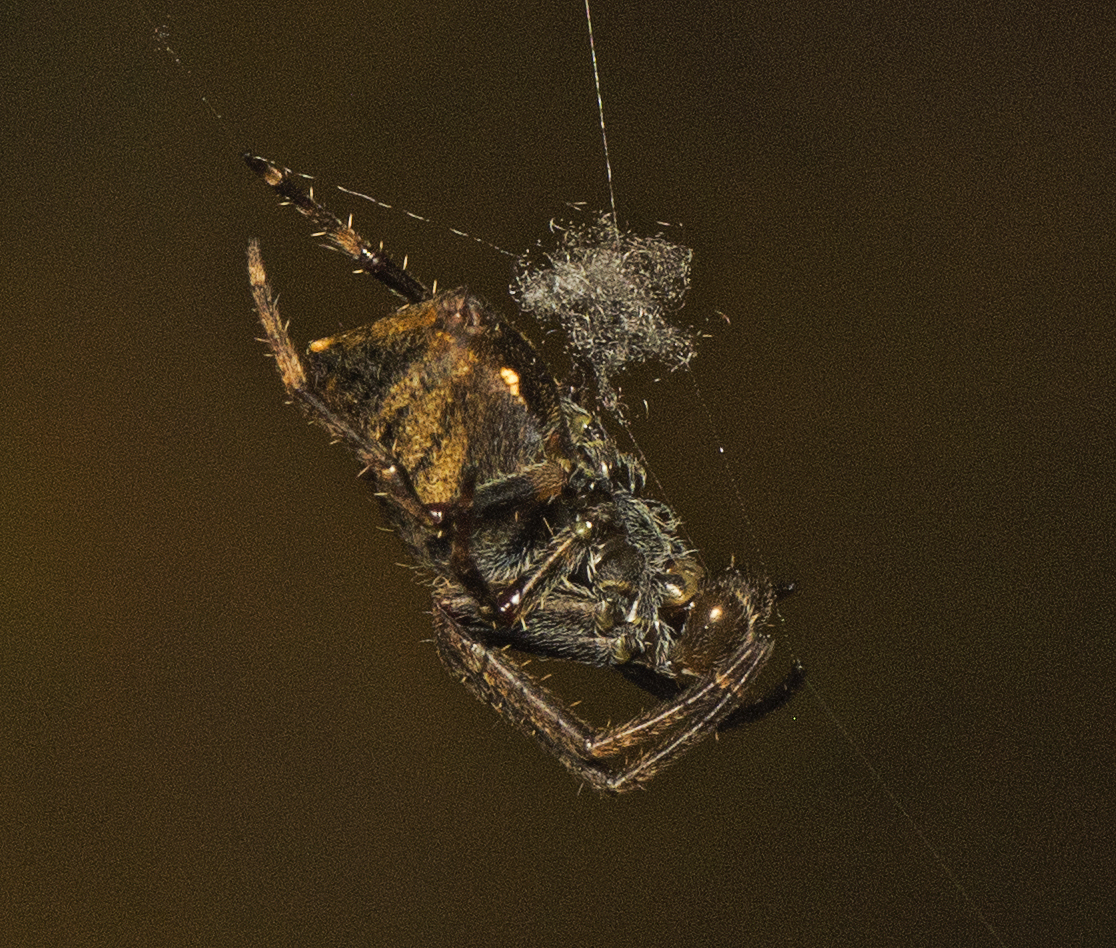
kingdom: Animalia
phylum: Arthropoda
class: Arachnida
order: Araneae
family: Araneidae
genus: Hortophora
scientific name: Hortophora
